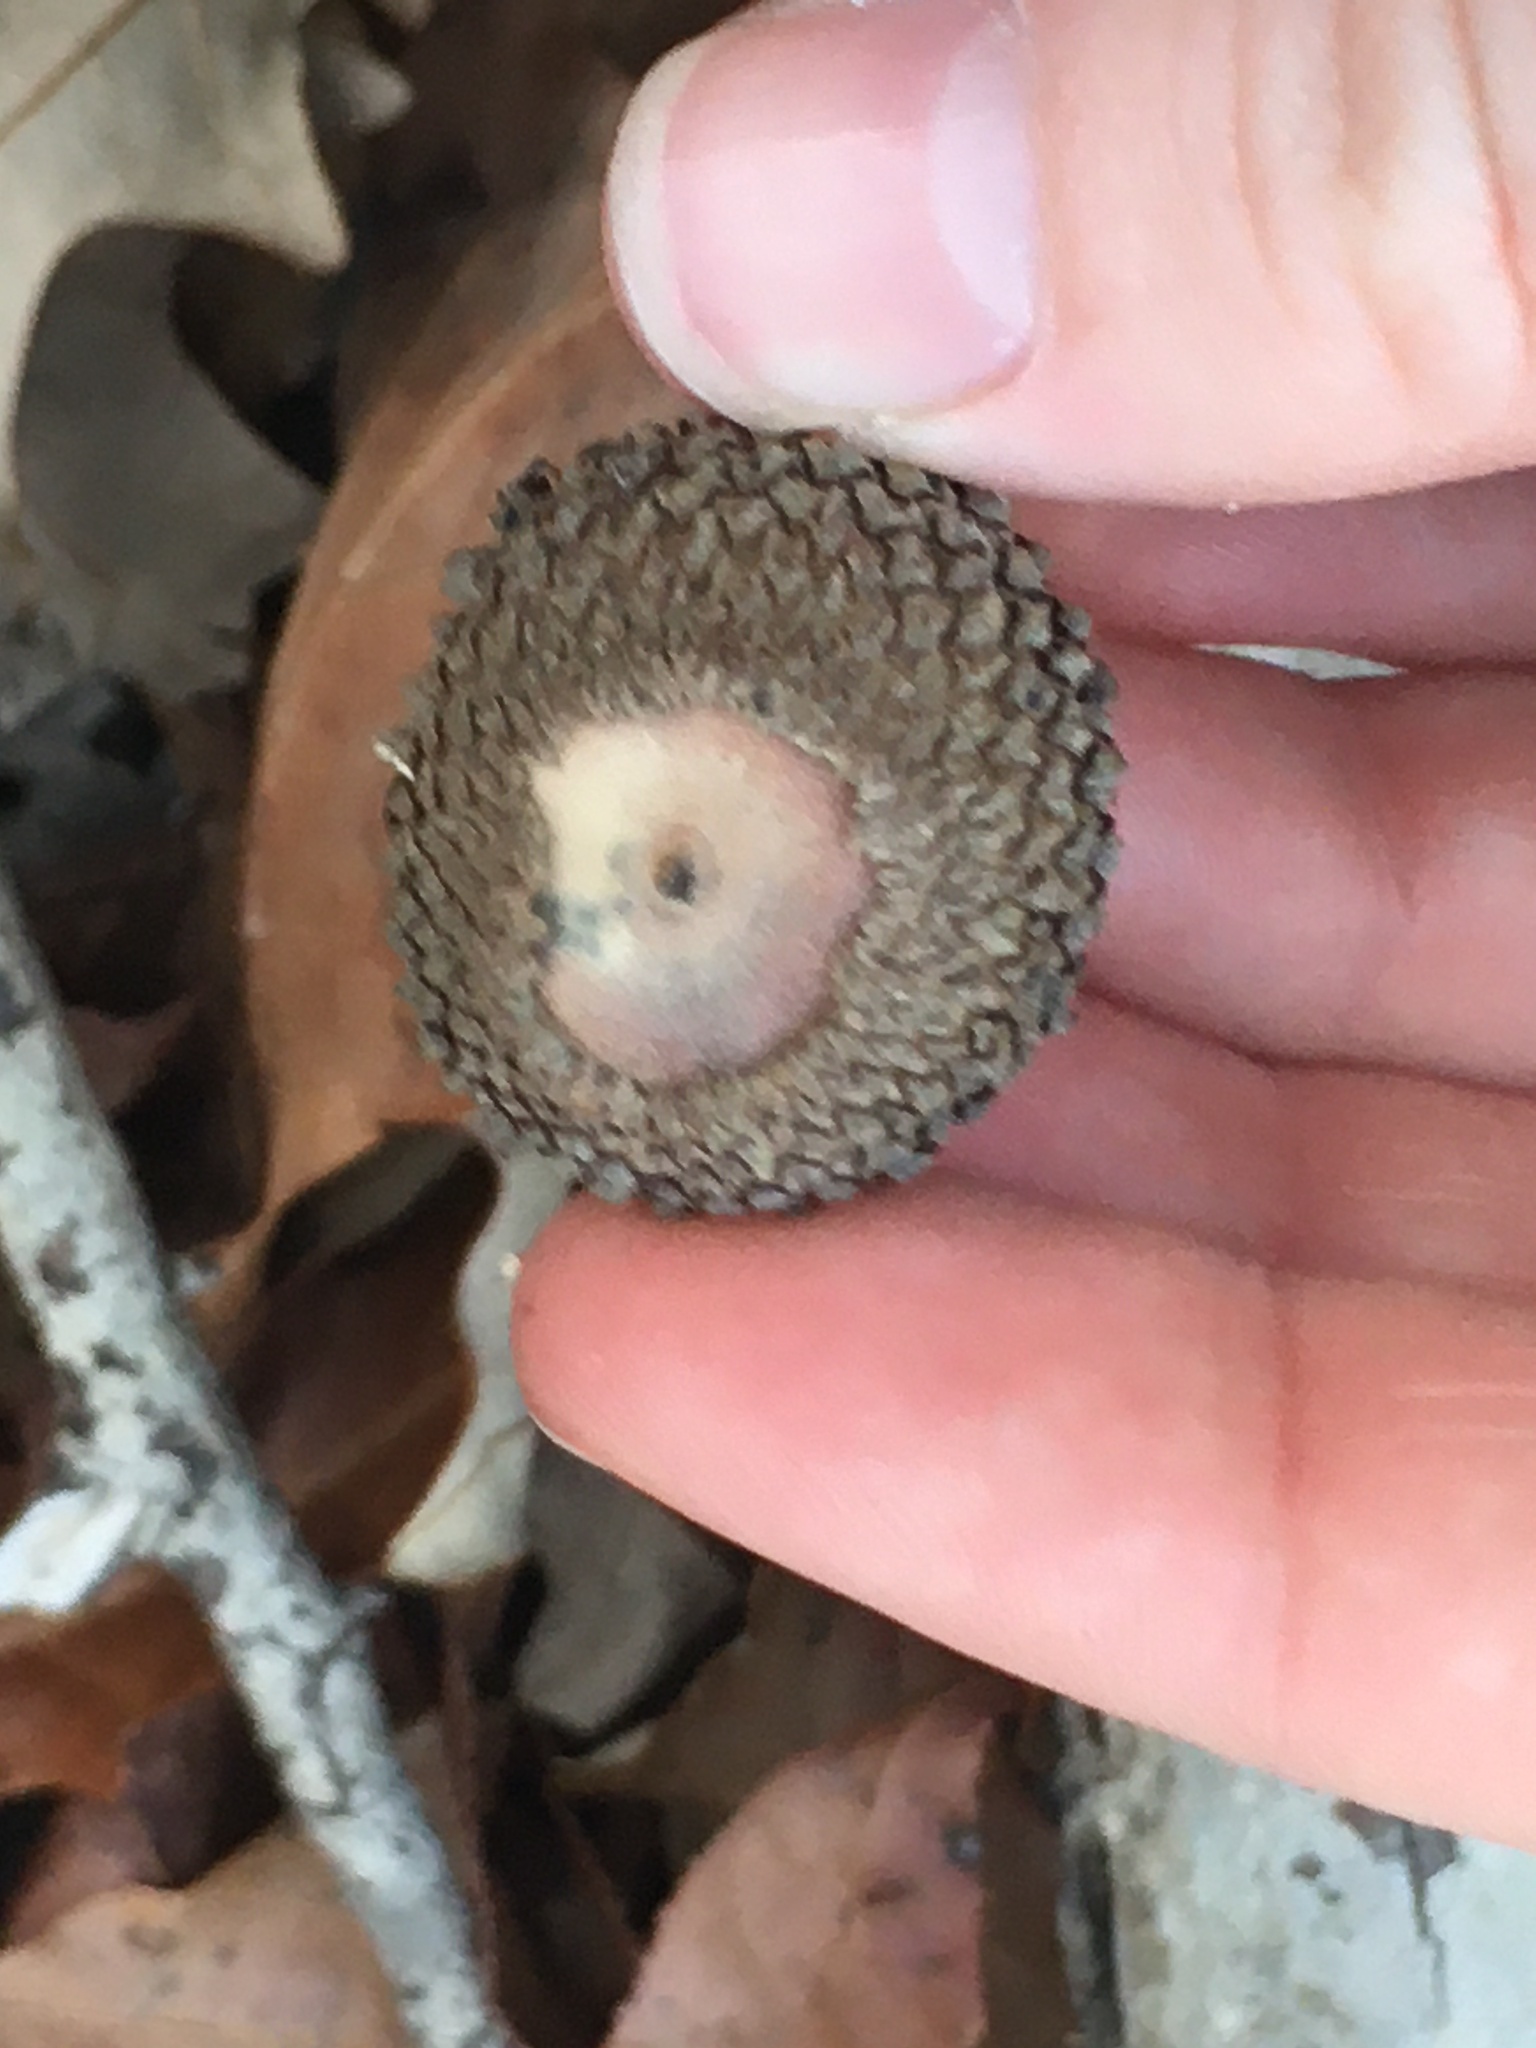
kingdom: Plantae
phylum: Tracheophyta
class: Magnoliopsida
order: Fagales
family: Fagaceae
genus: Quercus
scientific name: Quercus lyrata
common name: Overcup oak
